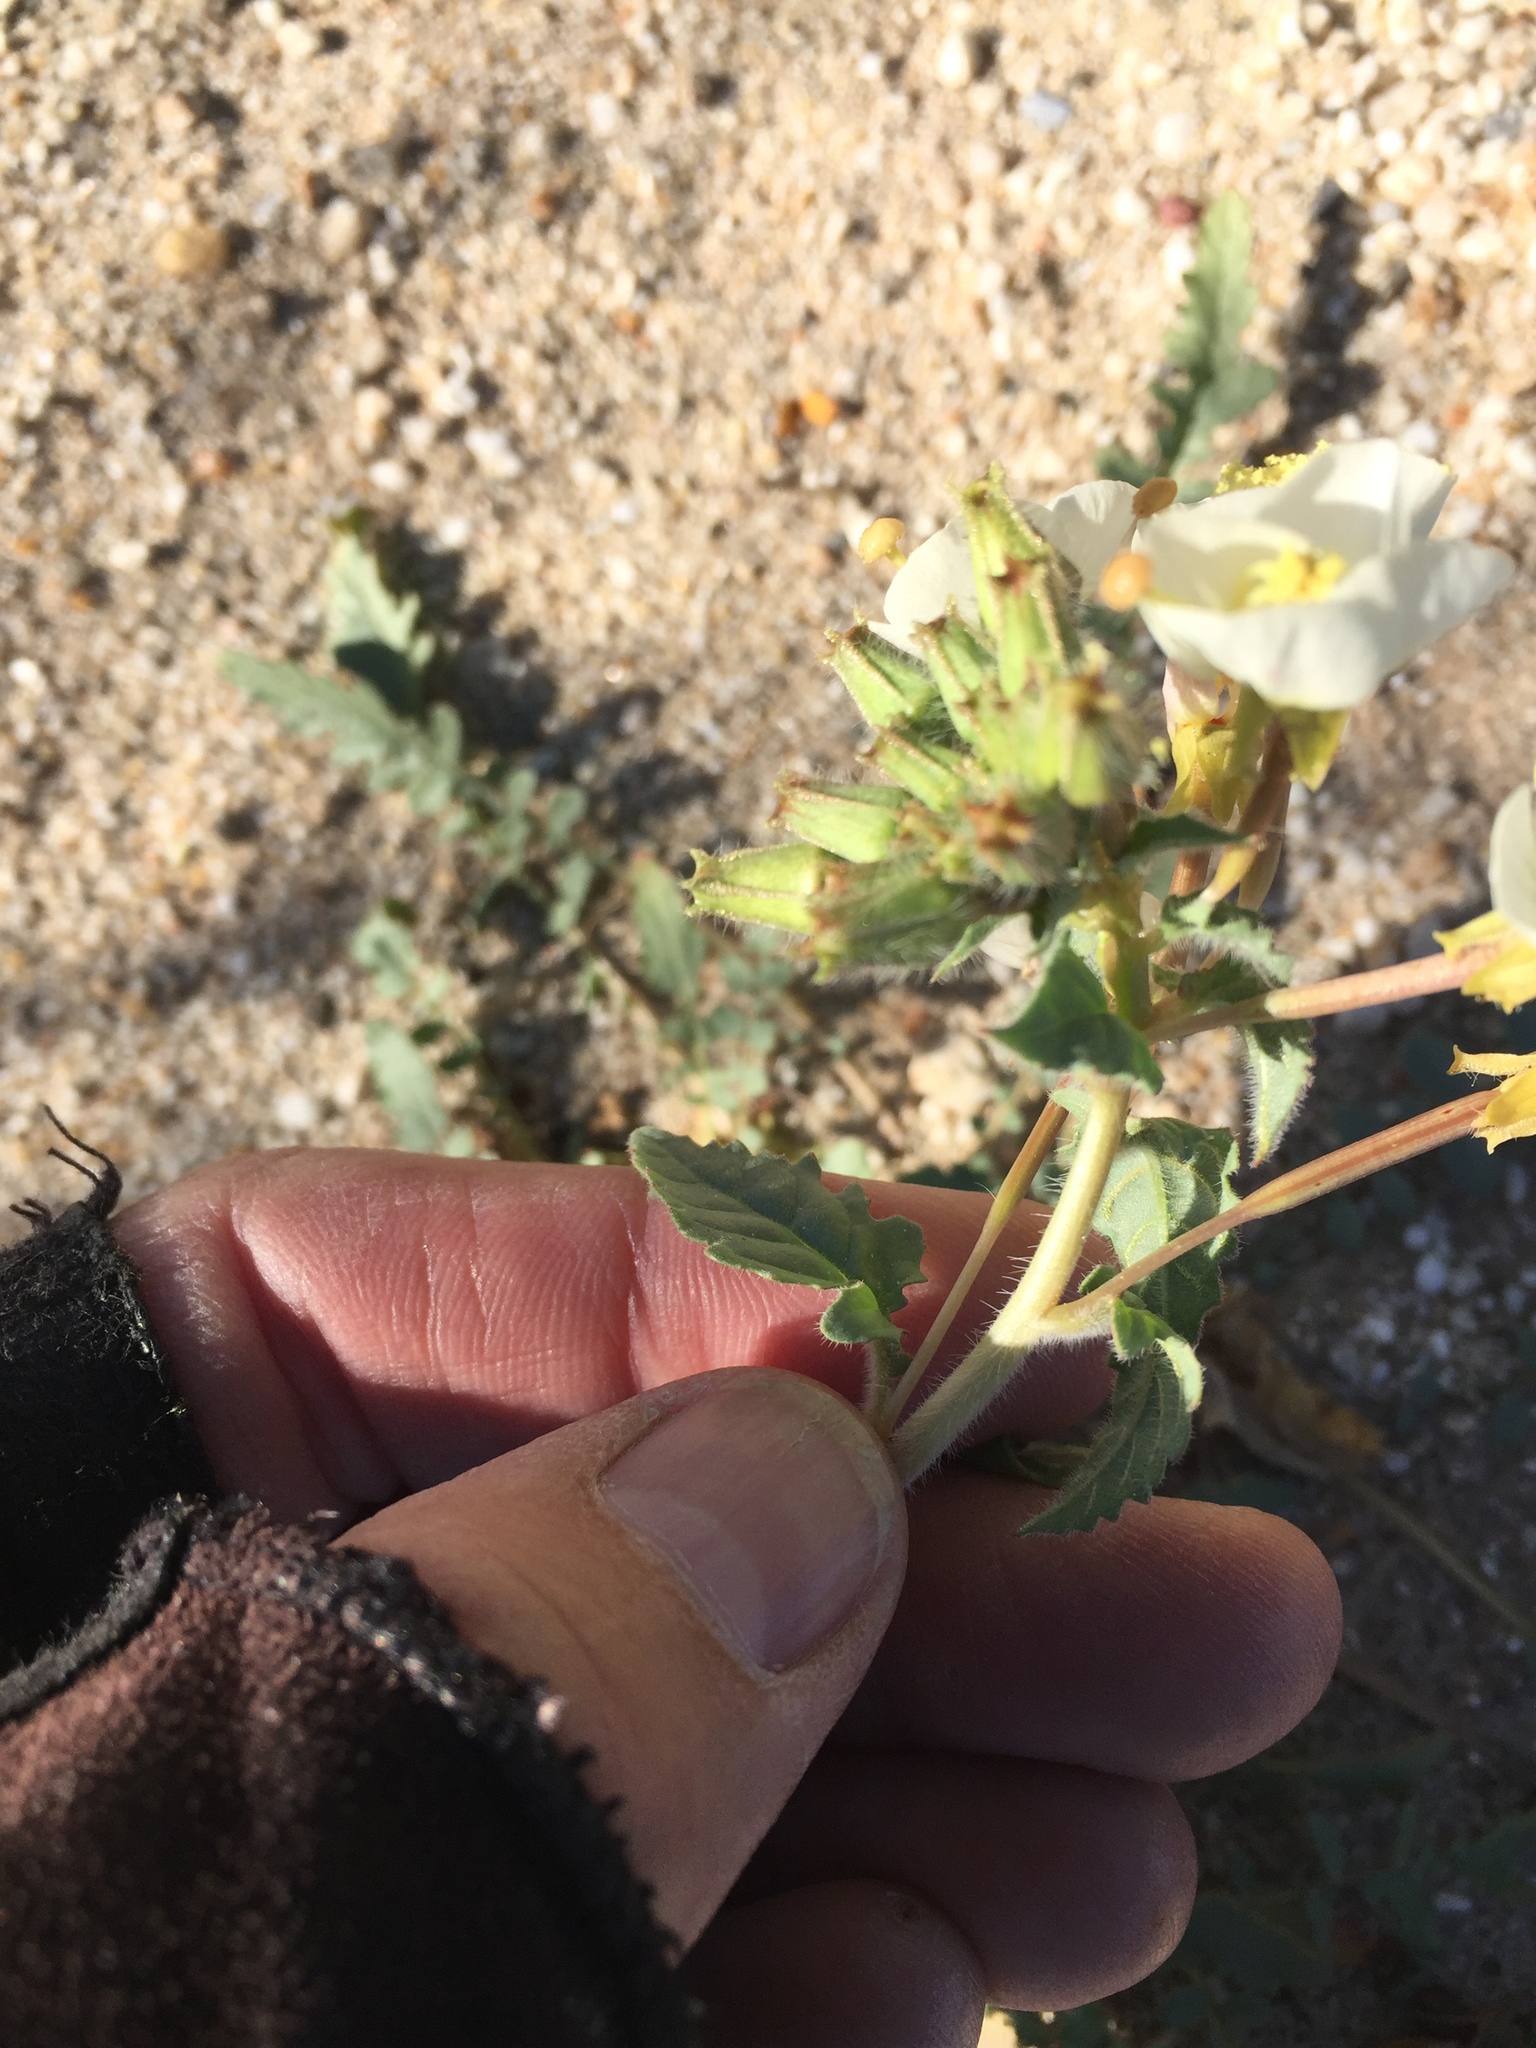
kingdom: Plantae
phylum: Tracheophyta
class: Magnoliopsida
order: Myrtales
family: Onagraceae
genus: Chylismia
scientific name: Chylismia claviformis
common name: Browneyes
